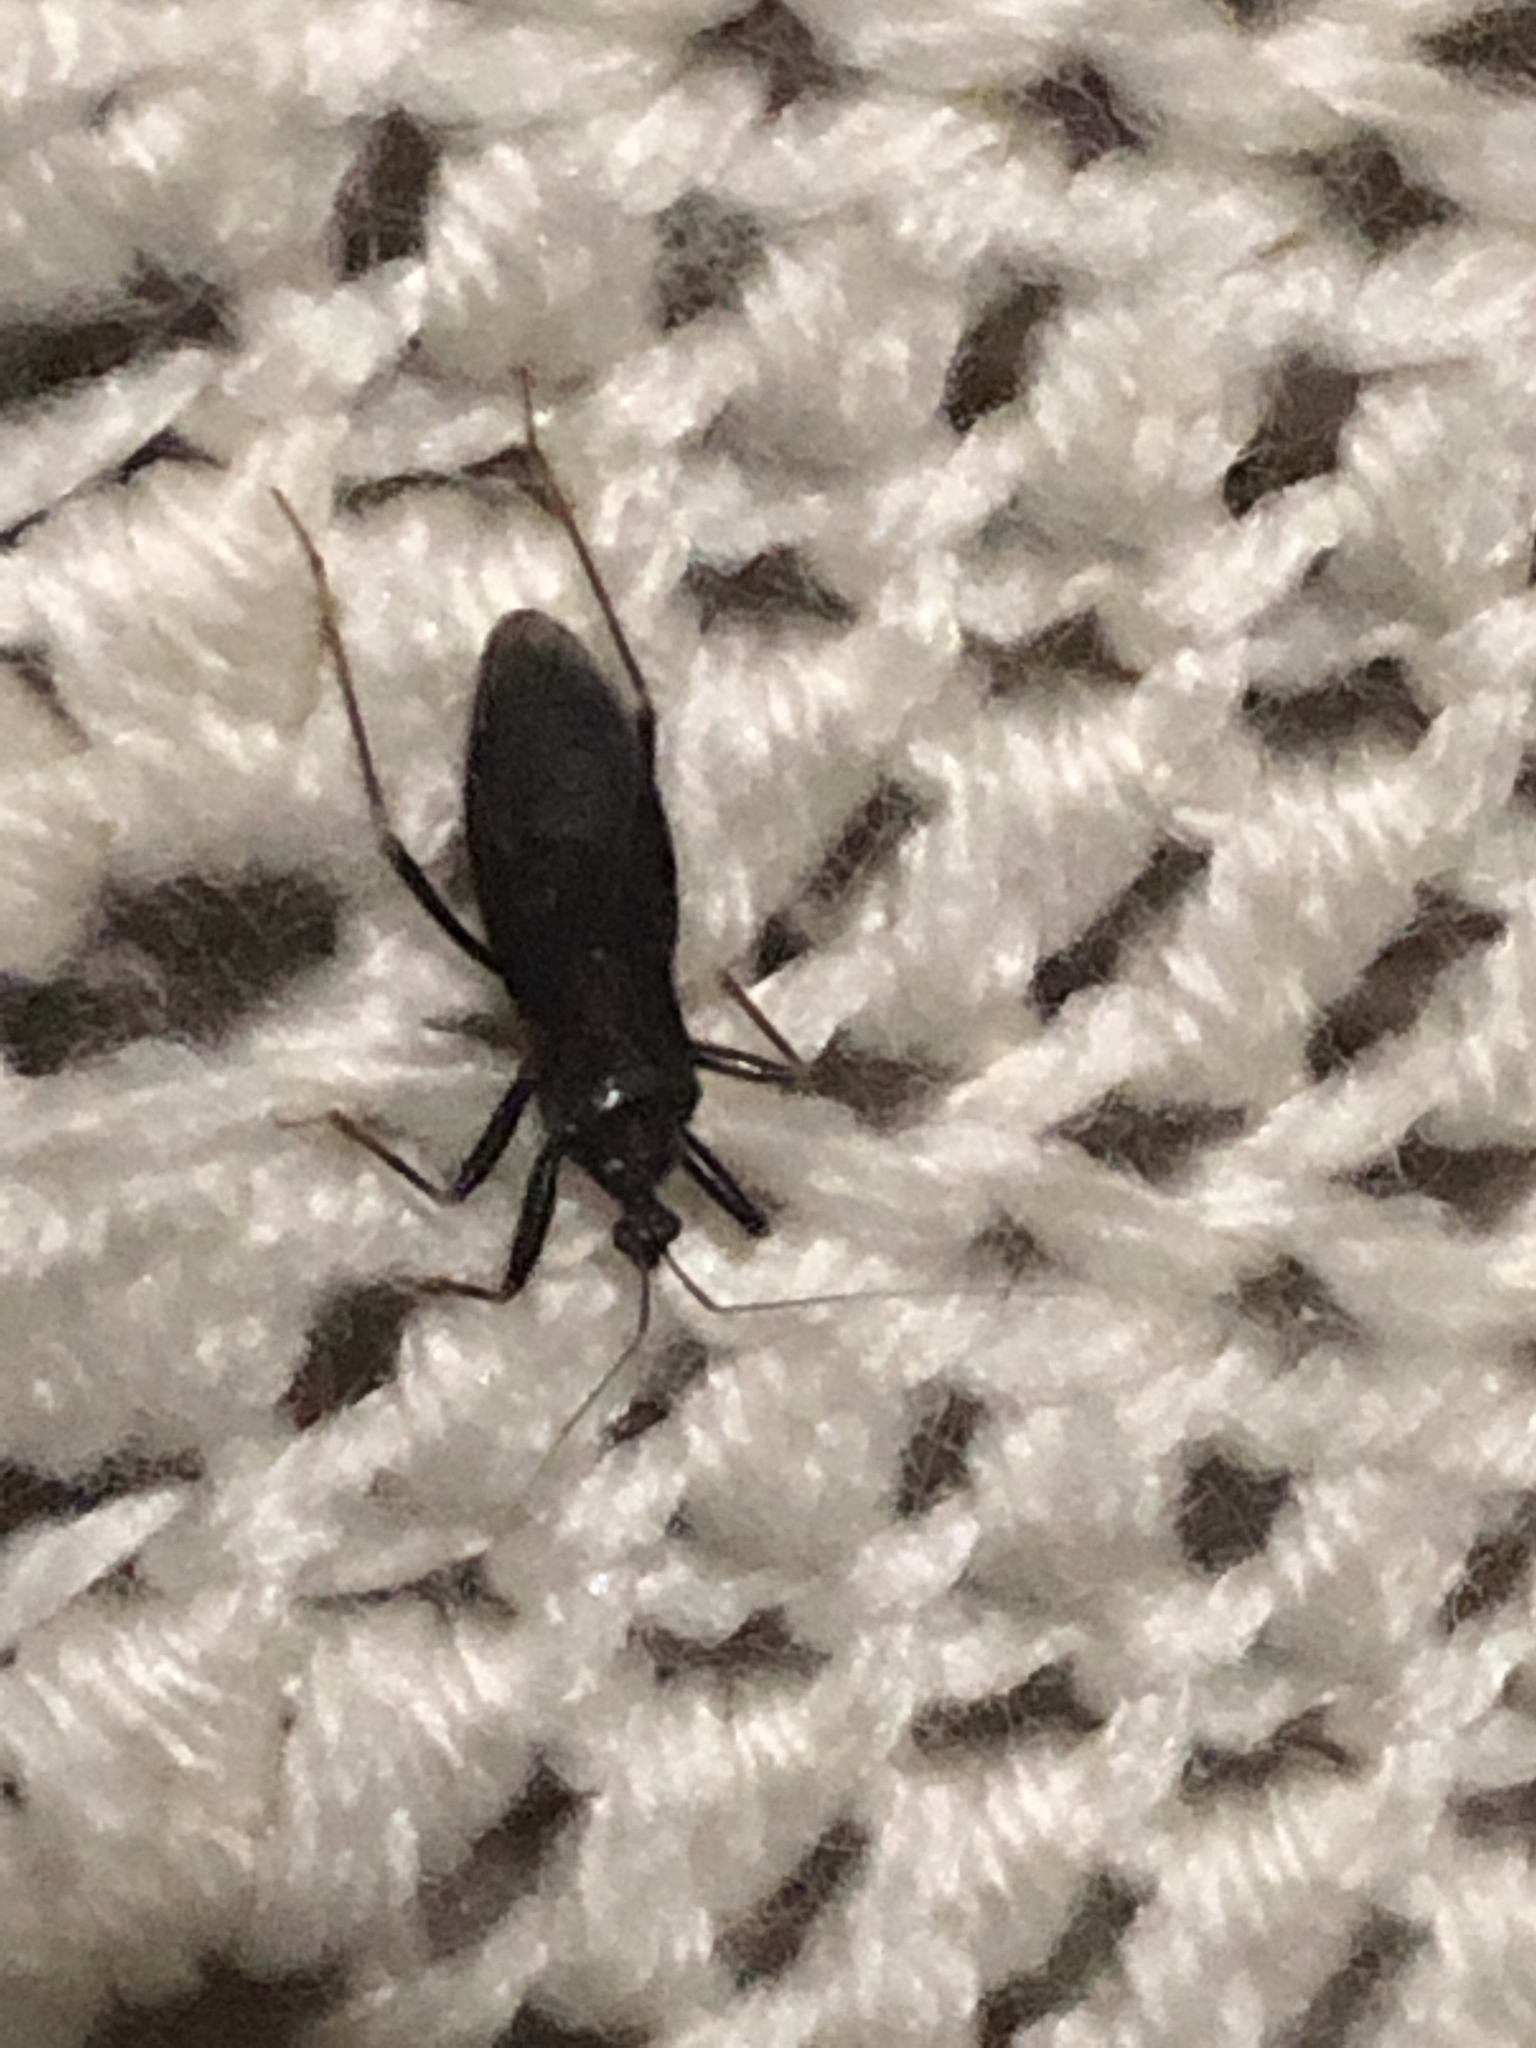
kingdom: Animalia
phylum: Arthropoda
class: Insecta
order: Hemiptera
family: Reduviidae
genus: Reduvius
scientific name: Reduvius personatus
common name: Masked hunter
